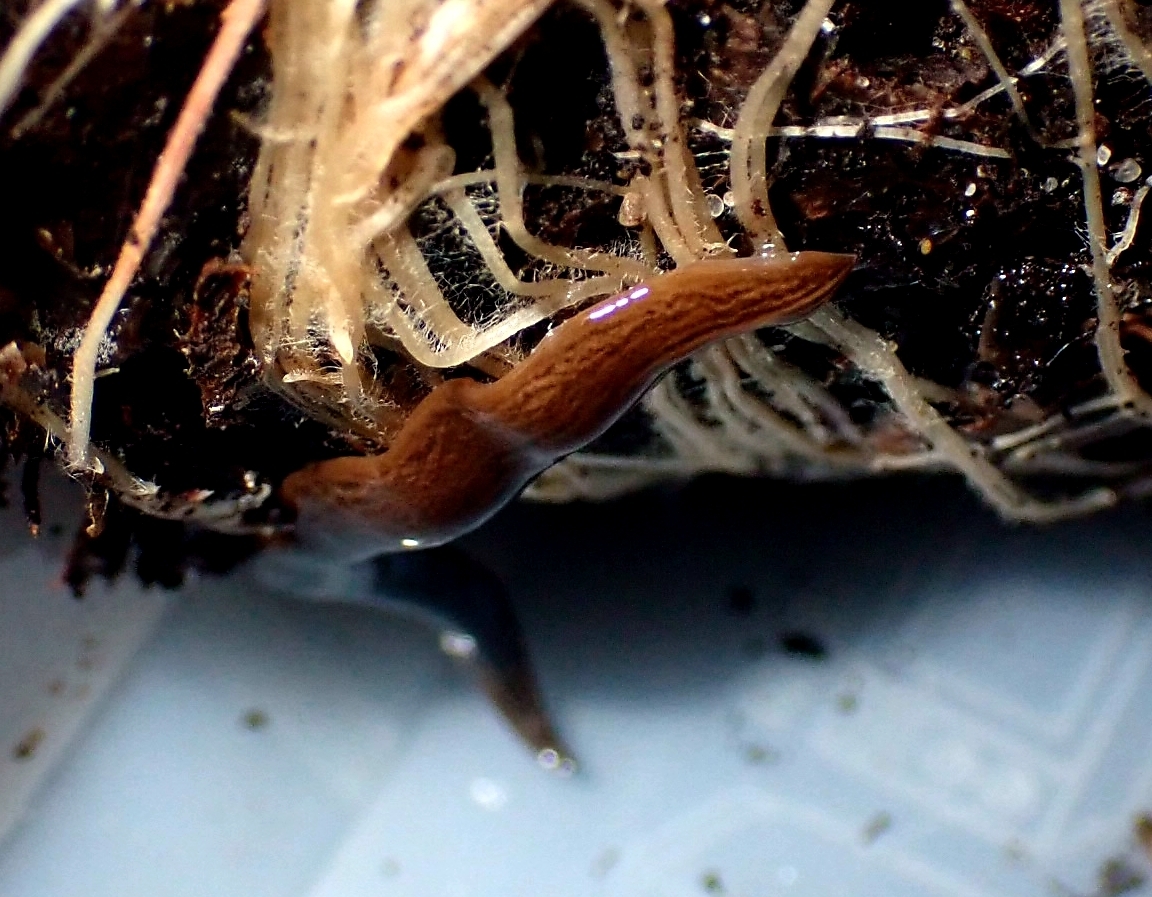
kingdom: Animalia
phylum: Platyhelminthes
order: Tricladida
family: Geoplanidae
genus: Obama
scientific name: Obama nungara
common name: Obama flatworm
